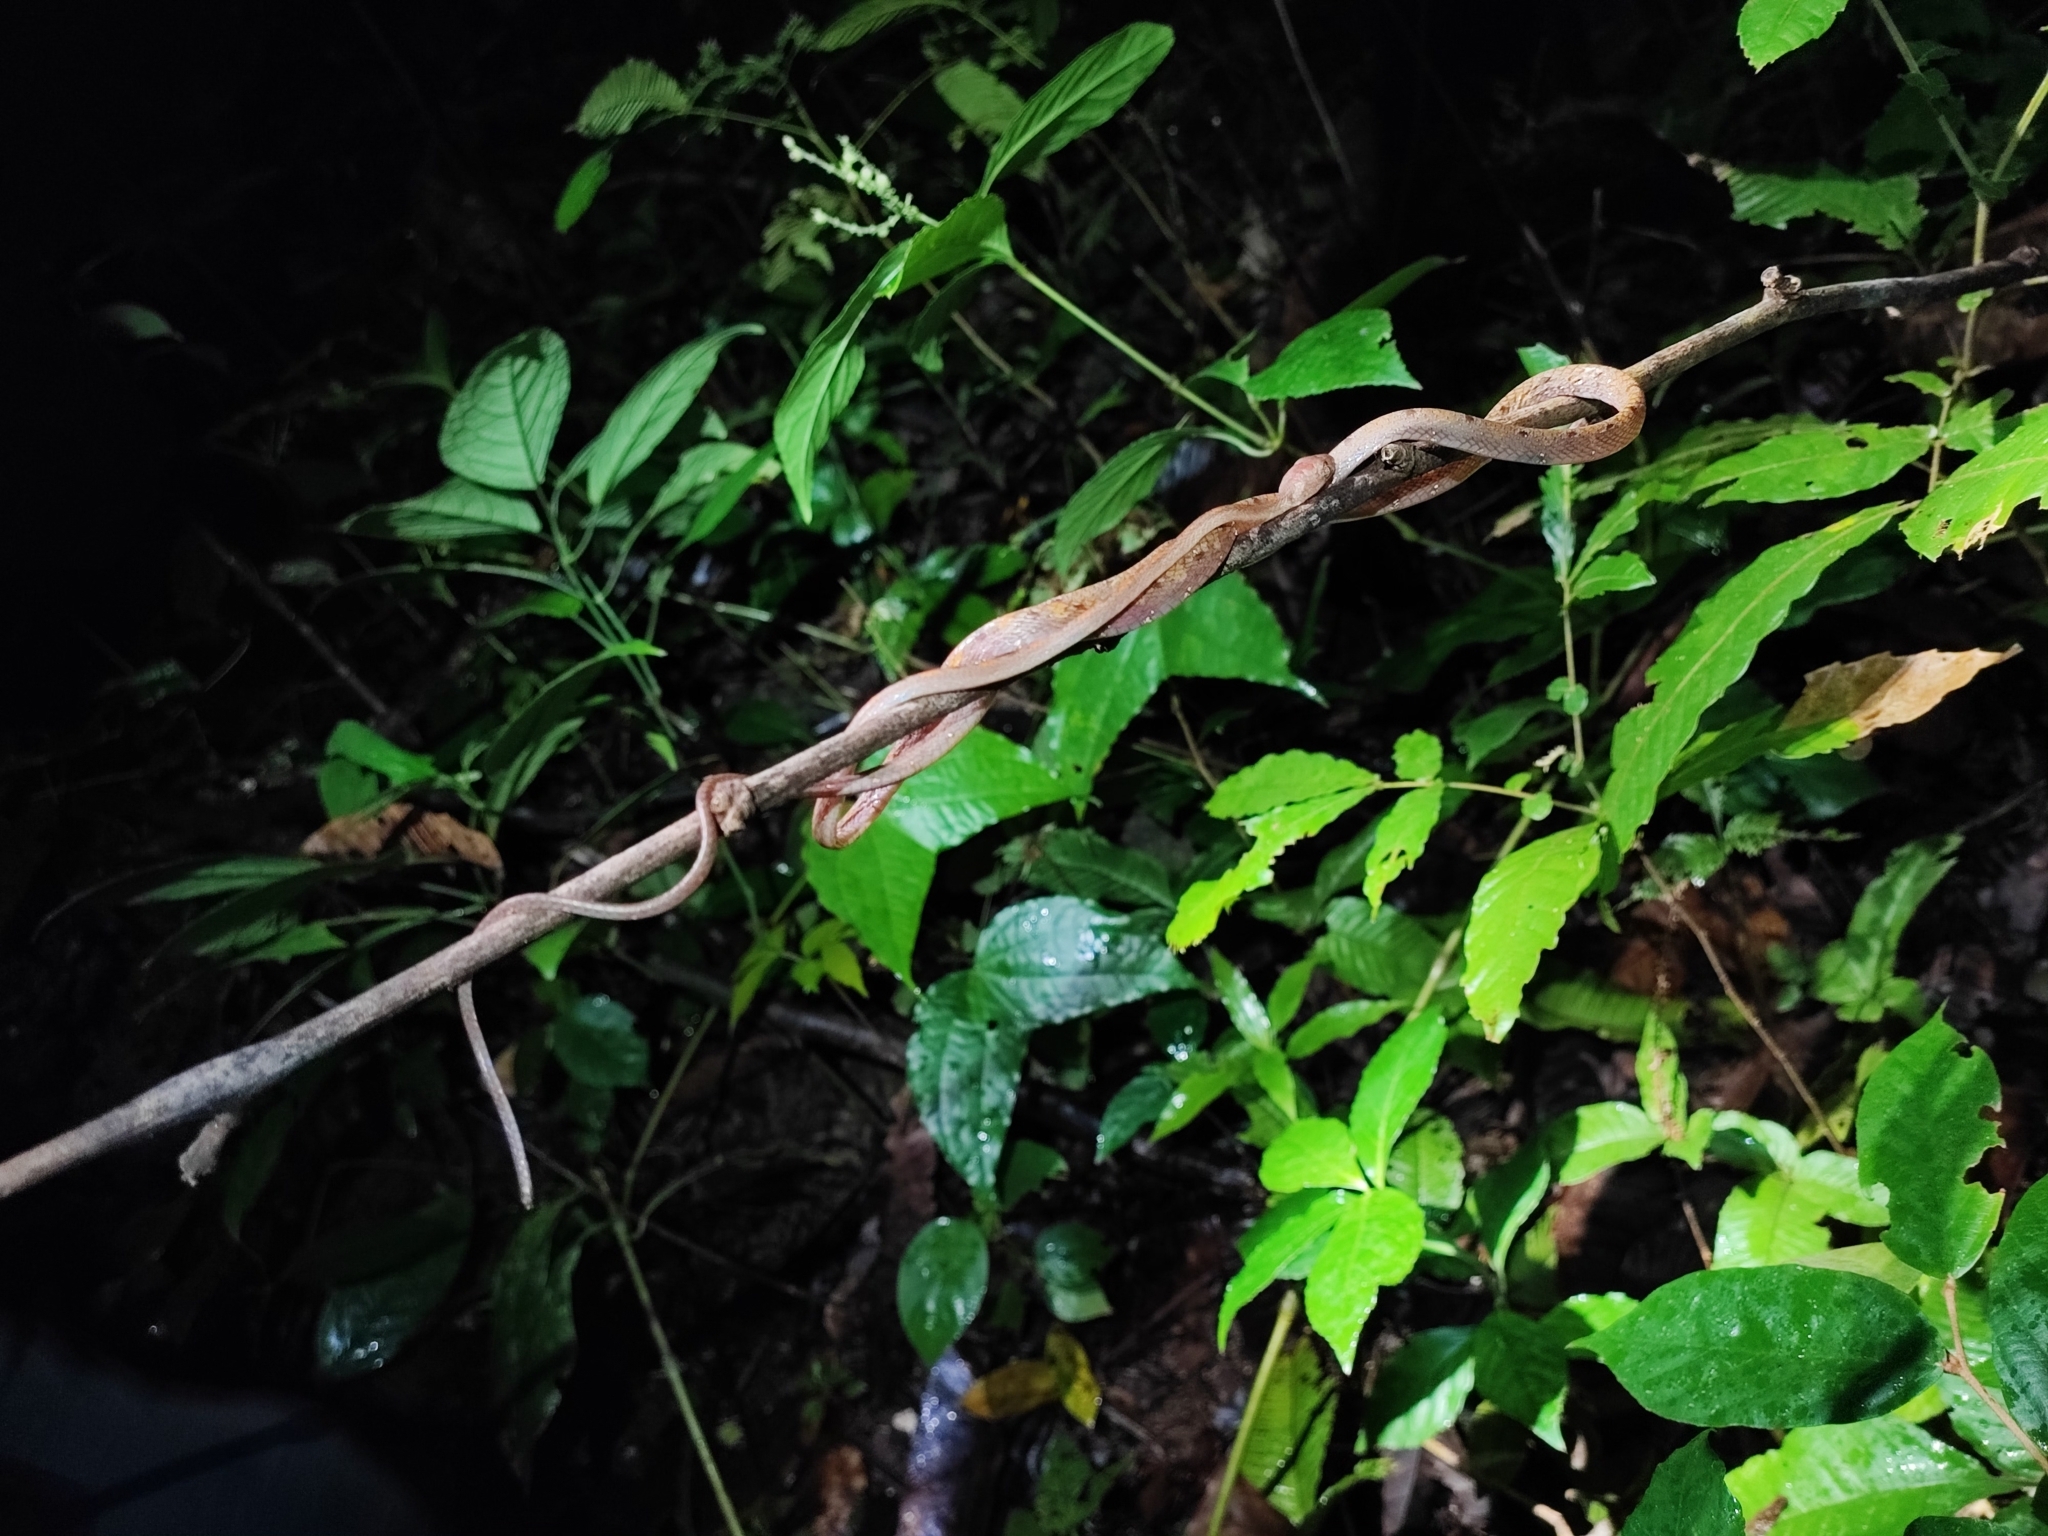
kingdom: Animalia
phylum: Chordata
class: Squamata
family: Colubridae
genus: Boiga
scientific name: Boiga drapiezii
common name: White-spotted cat snake
